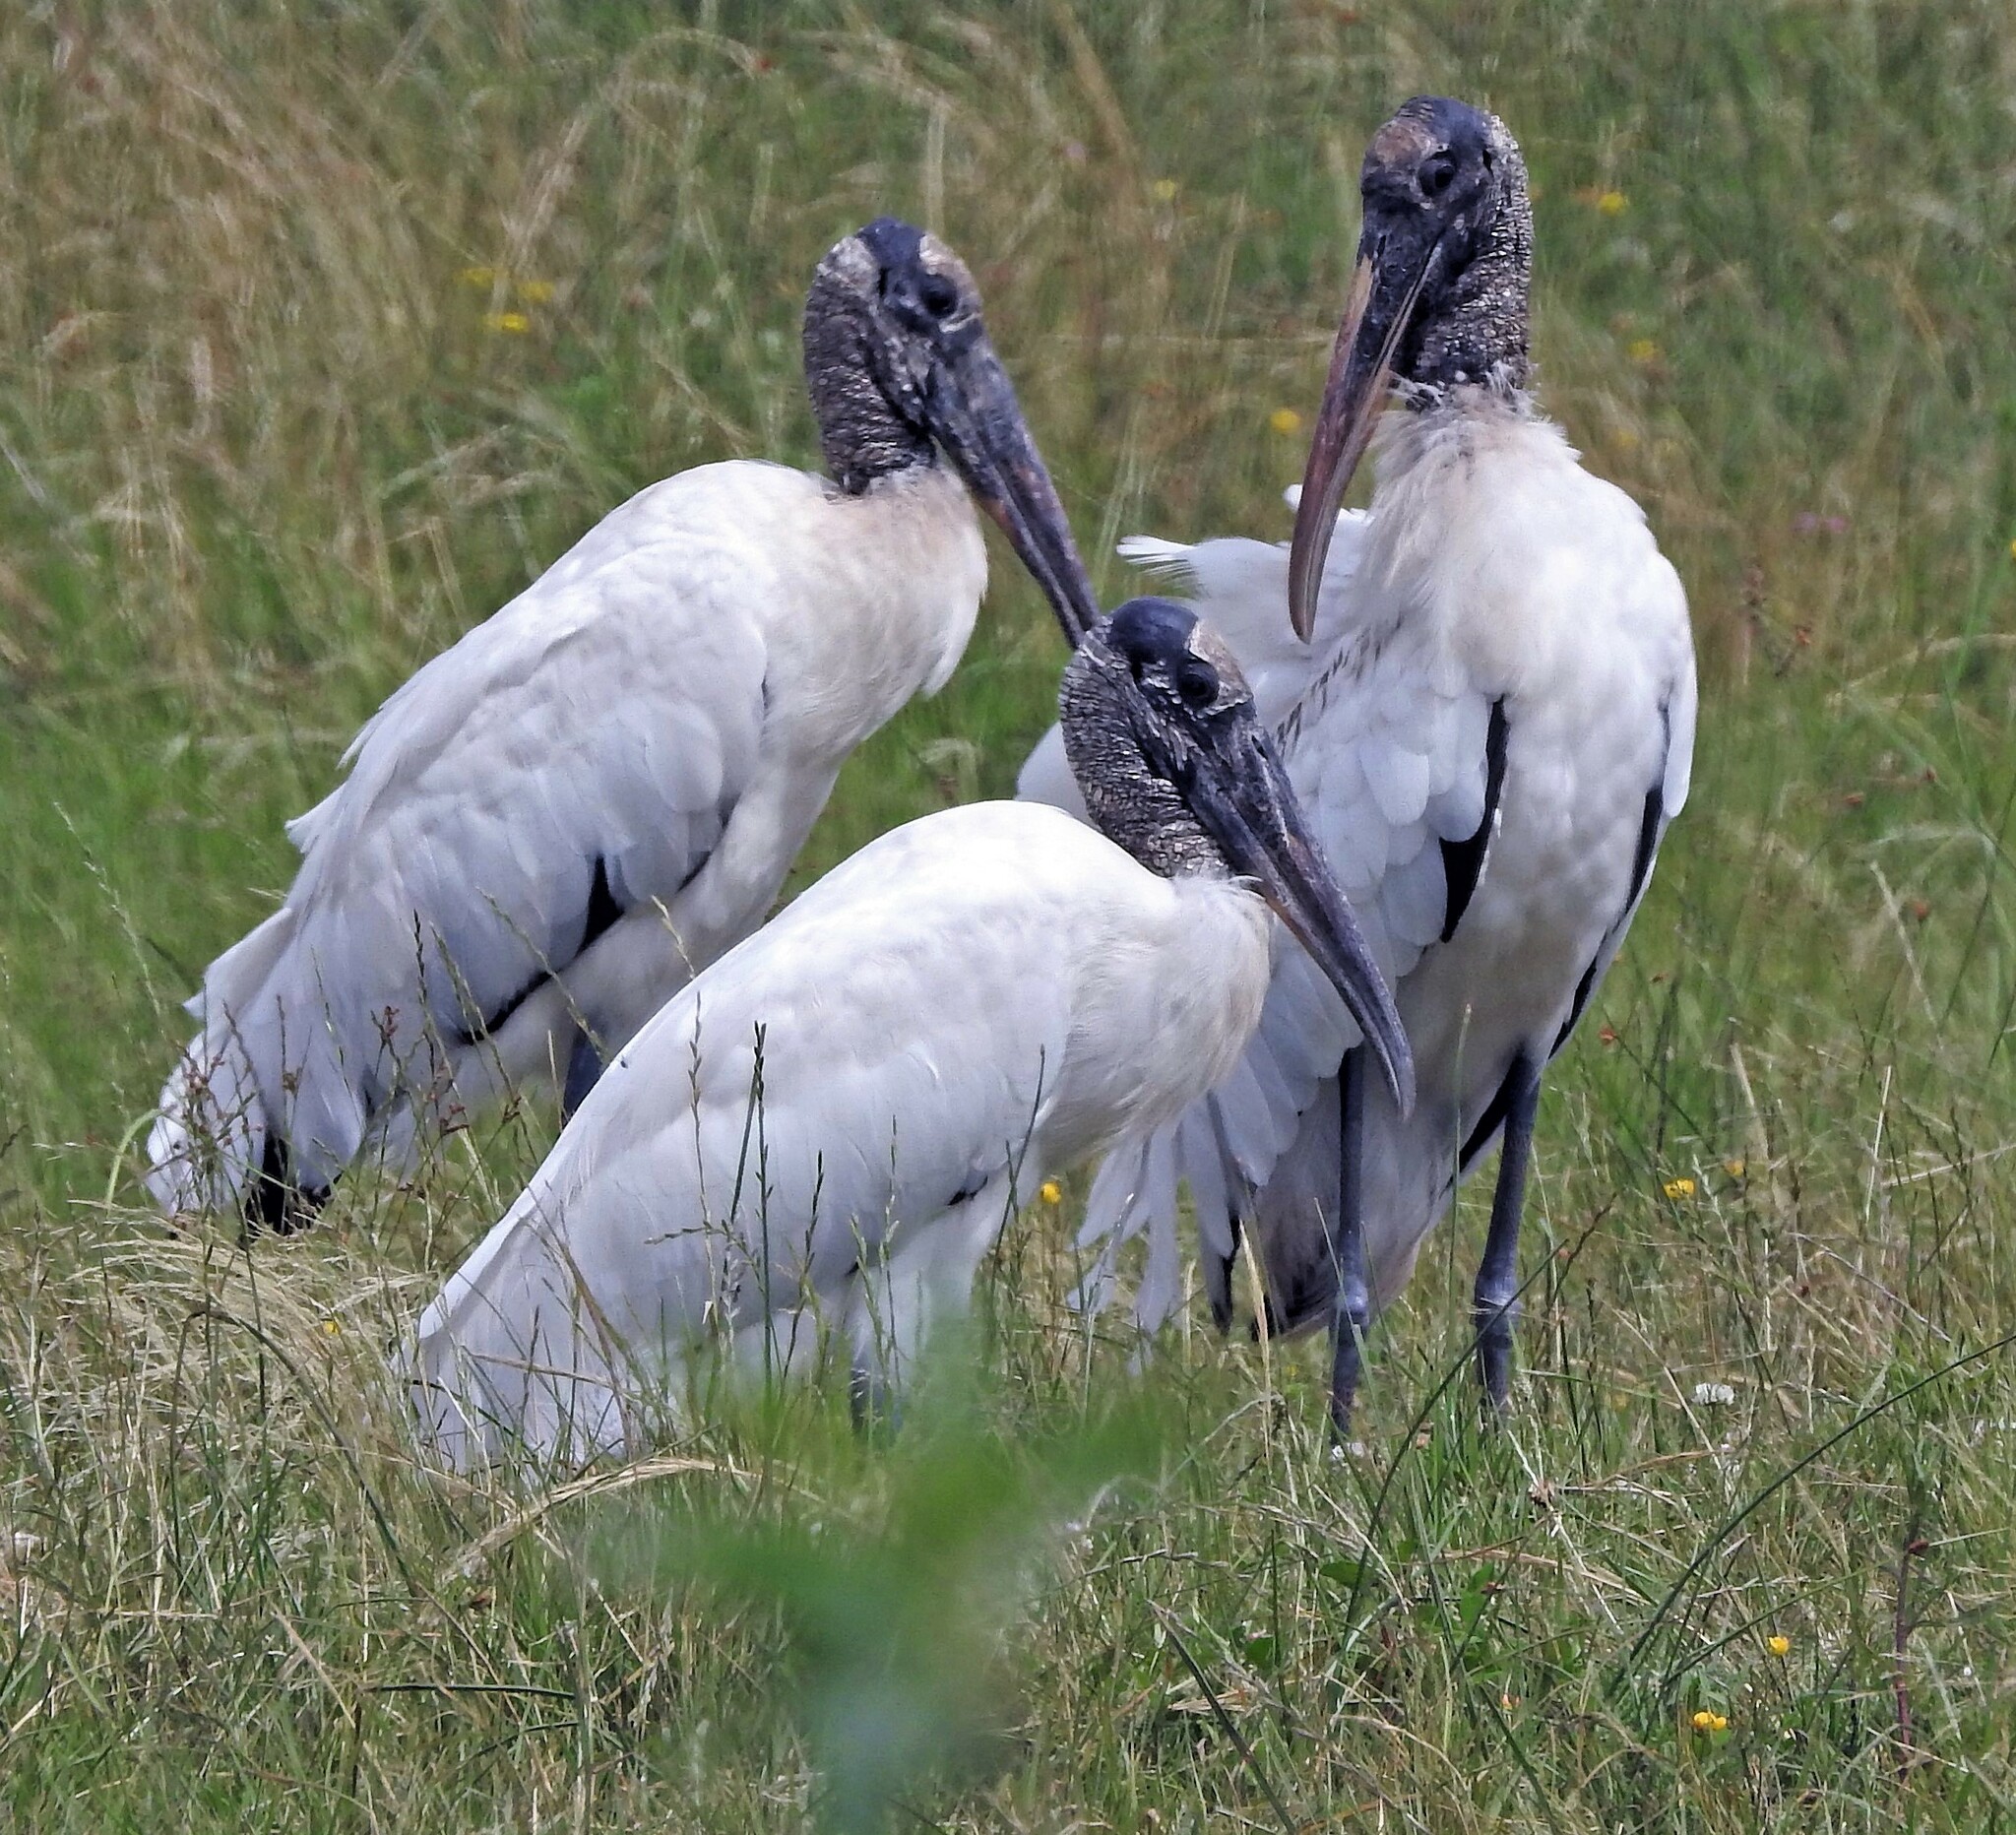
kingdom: Animalia
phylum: Chordata
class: Aves
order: Ciconiiformes
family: Ciconiidae
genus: Mycteria
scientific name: Mycteria americana
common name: Wood stork
